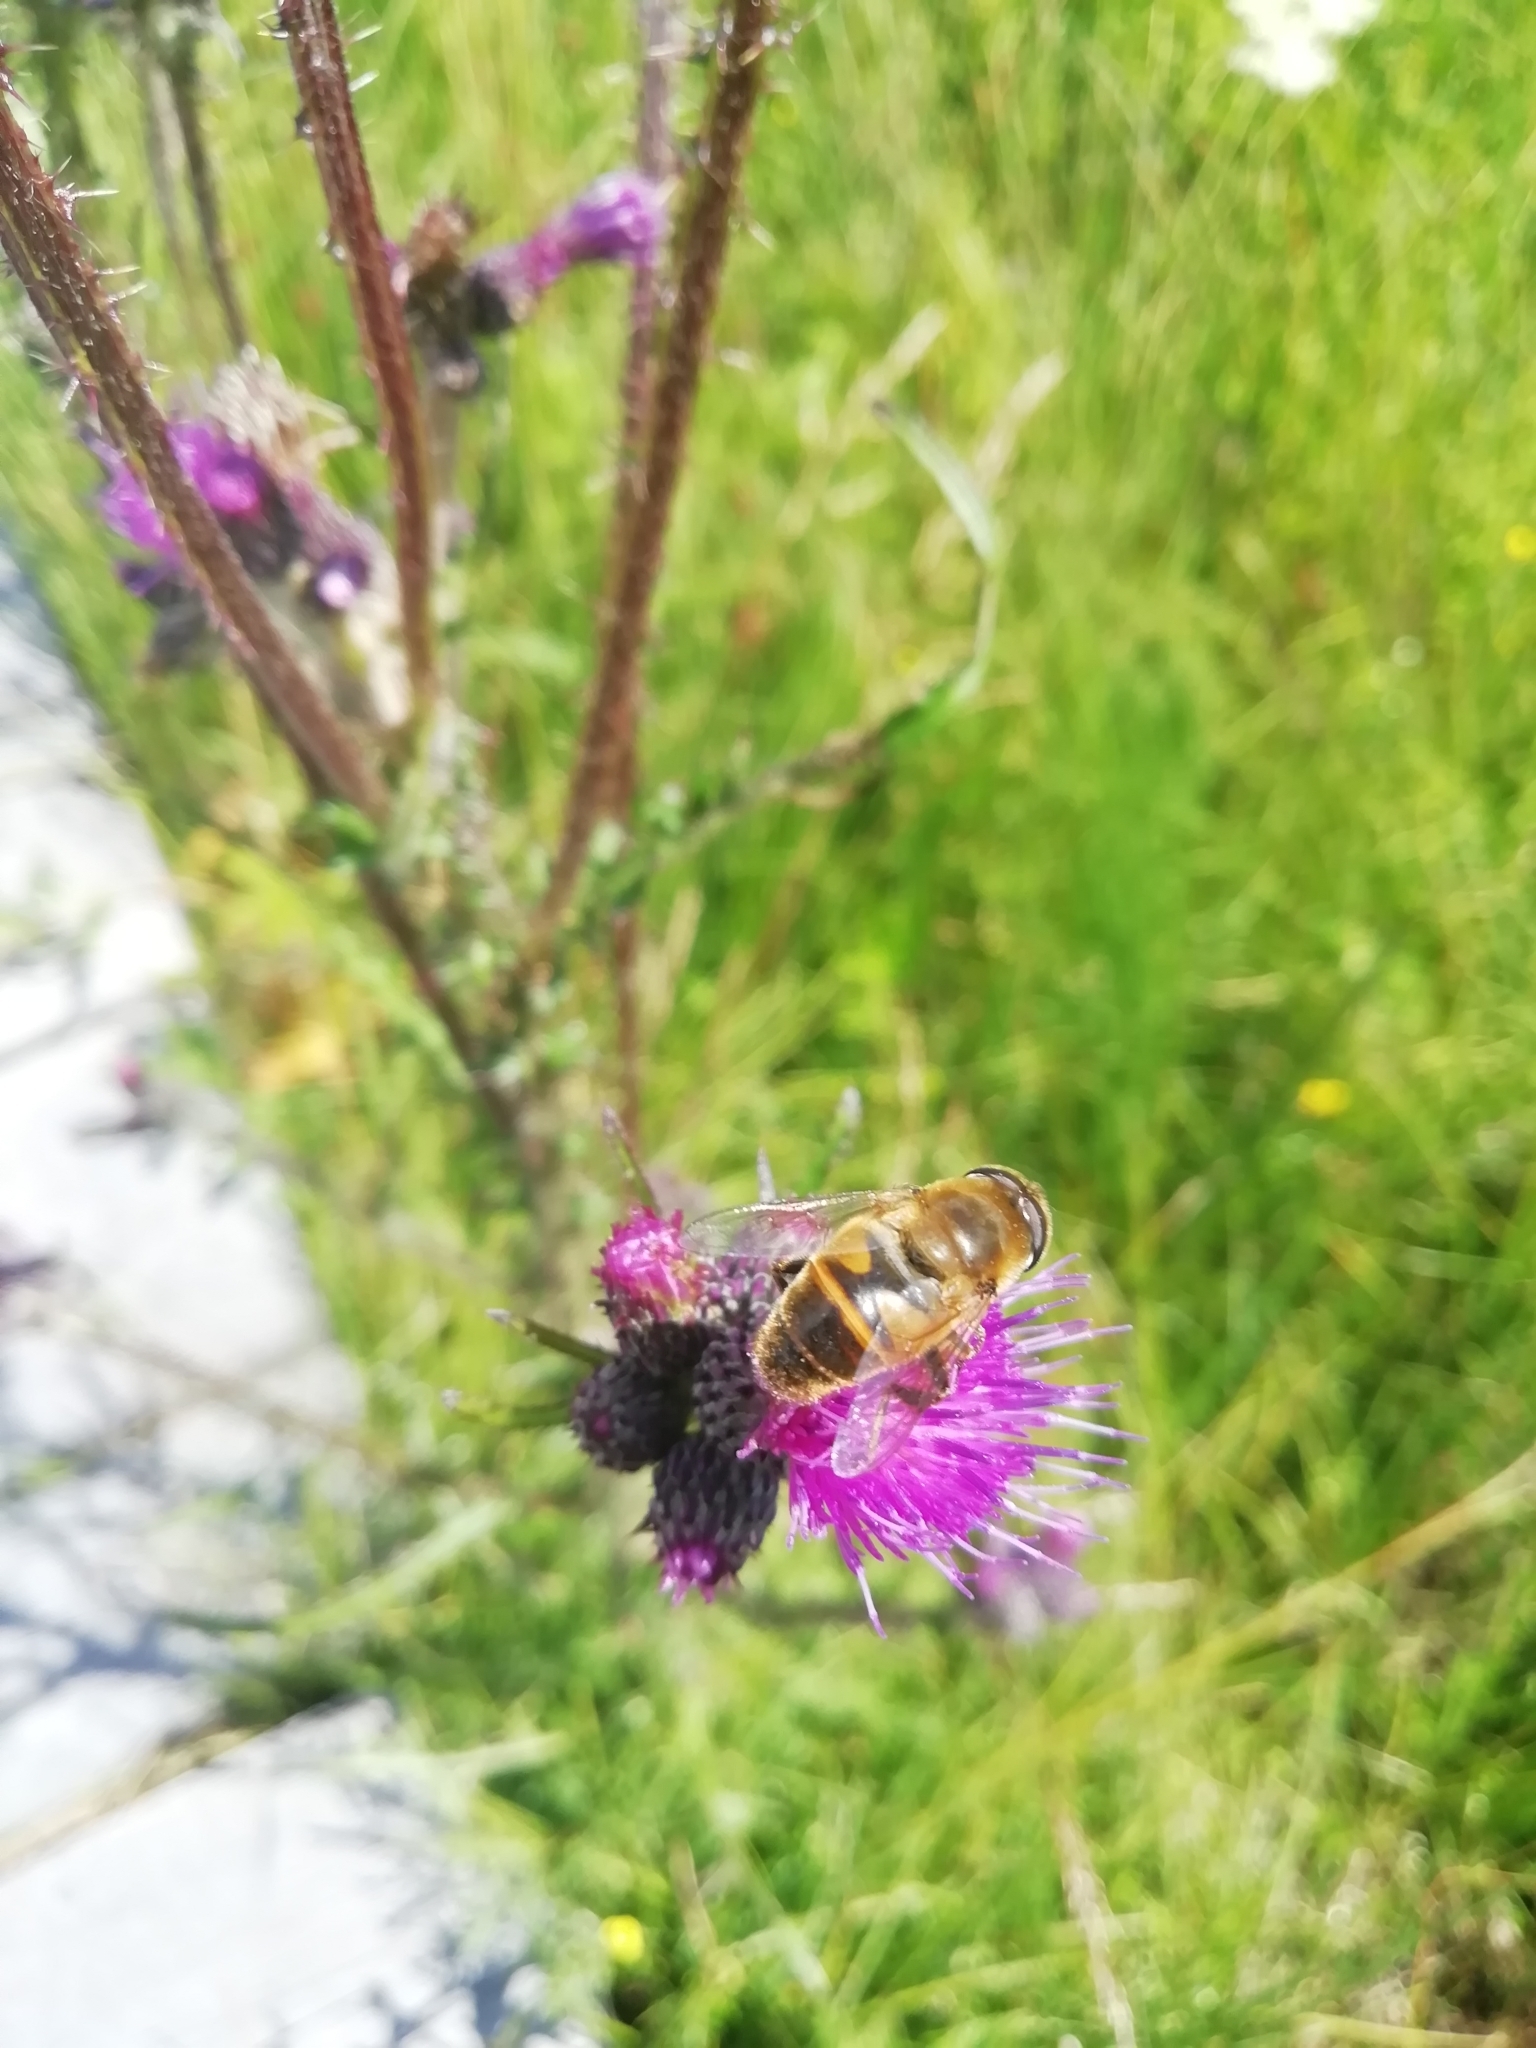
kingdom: Animalia
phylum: Arthropoda
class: Insecta
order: Diptera
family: Syrphidae
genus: Eristalis
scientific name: Eristalis tenax
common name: Drone fly
